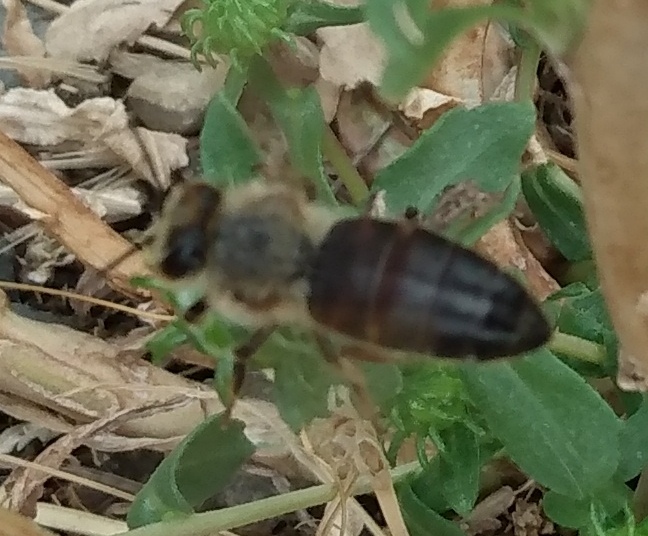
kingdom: Animalia
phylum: Arthropoda
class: Insecta
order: Hymenoptera
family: Apidae
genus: Apis
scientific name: Apis mellifera
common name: Honey bee
